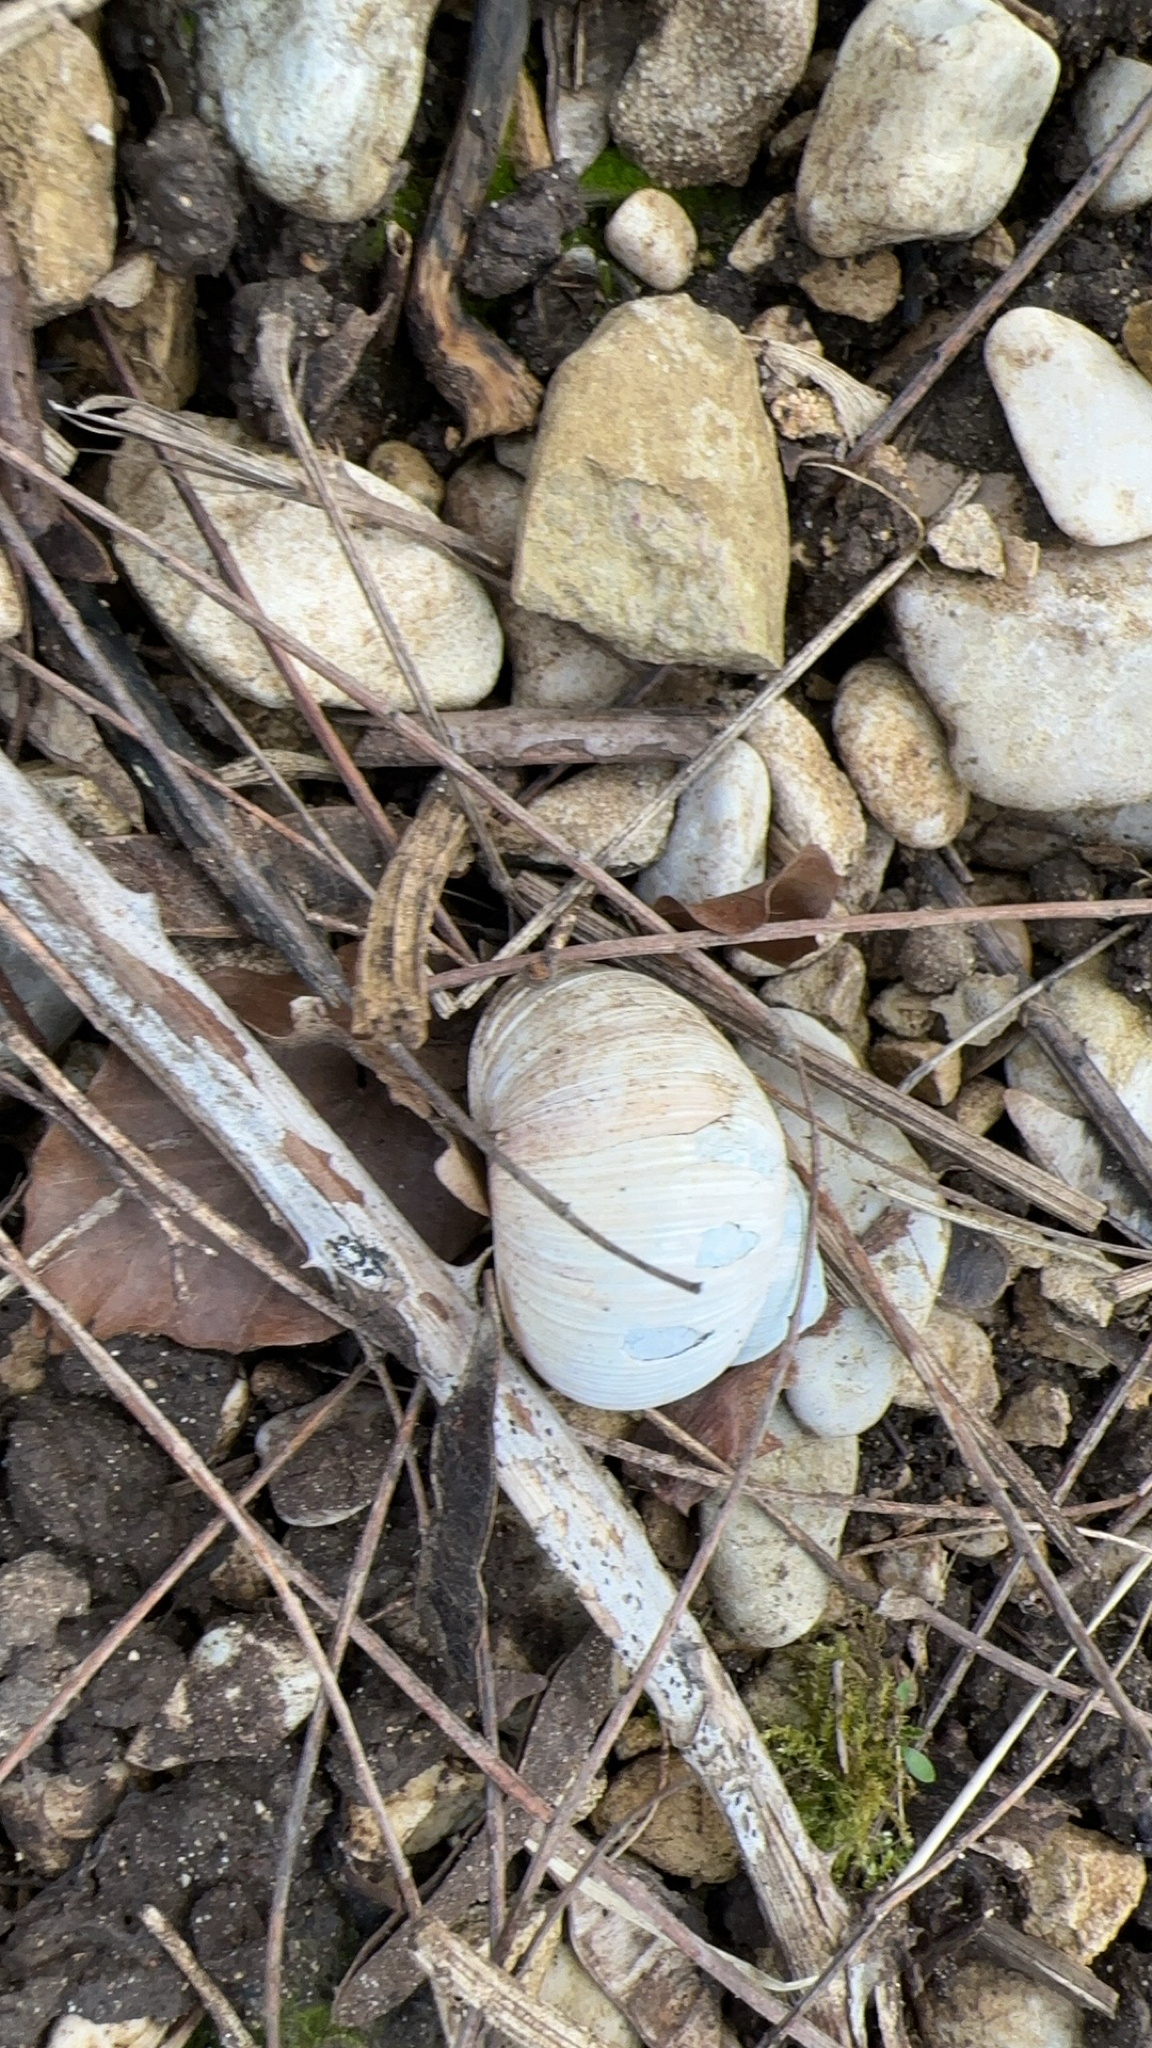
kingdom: Animalia
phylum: Mollusca
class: Gastropoda
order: Stylommatophora
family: Helicidae
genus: Helix
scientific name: Helix pomatia
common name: Roman snail
